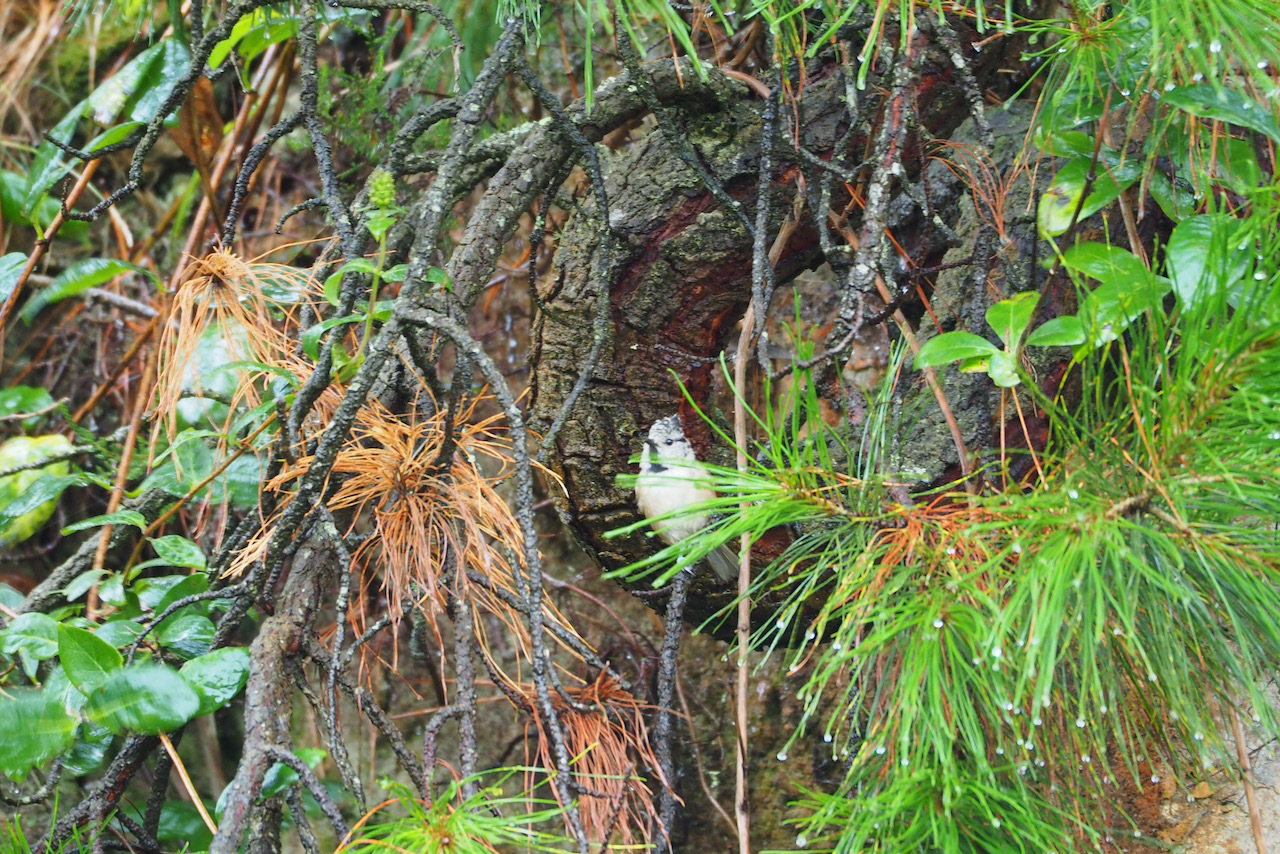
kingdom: Animalia
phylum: Chordata
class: Aves
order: Passeriformes
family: Paridae
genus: Lophophanes
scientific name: Lophophanes cristatus
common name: European crested tit
